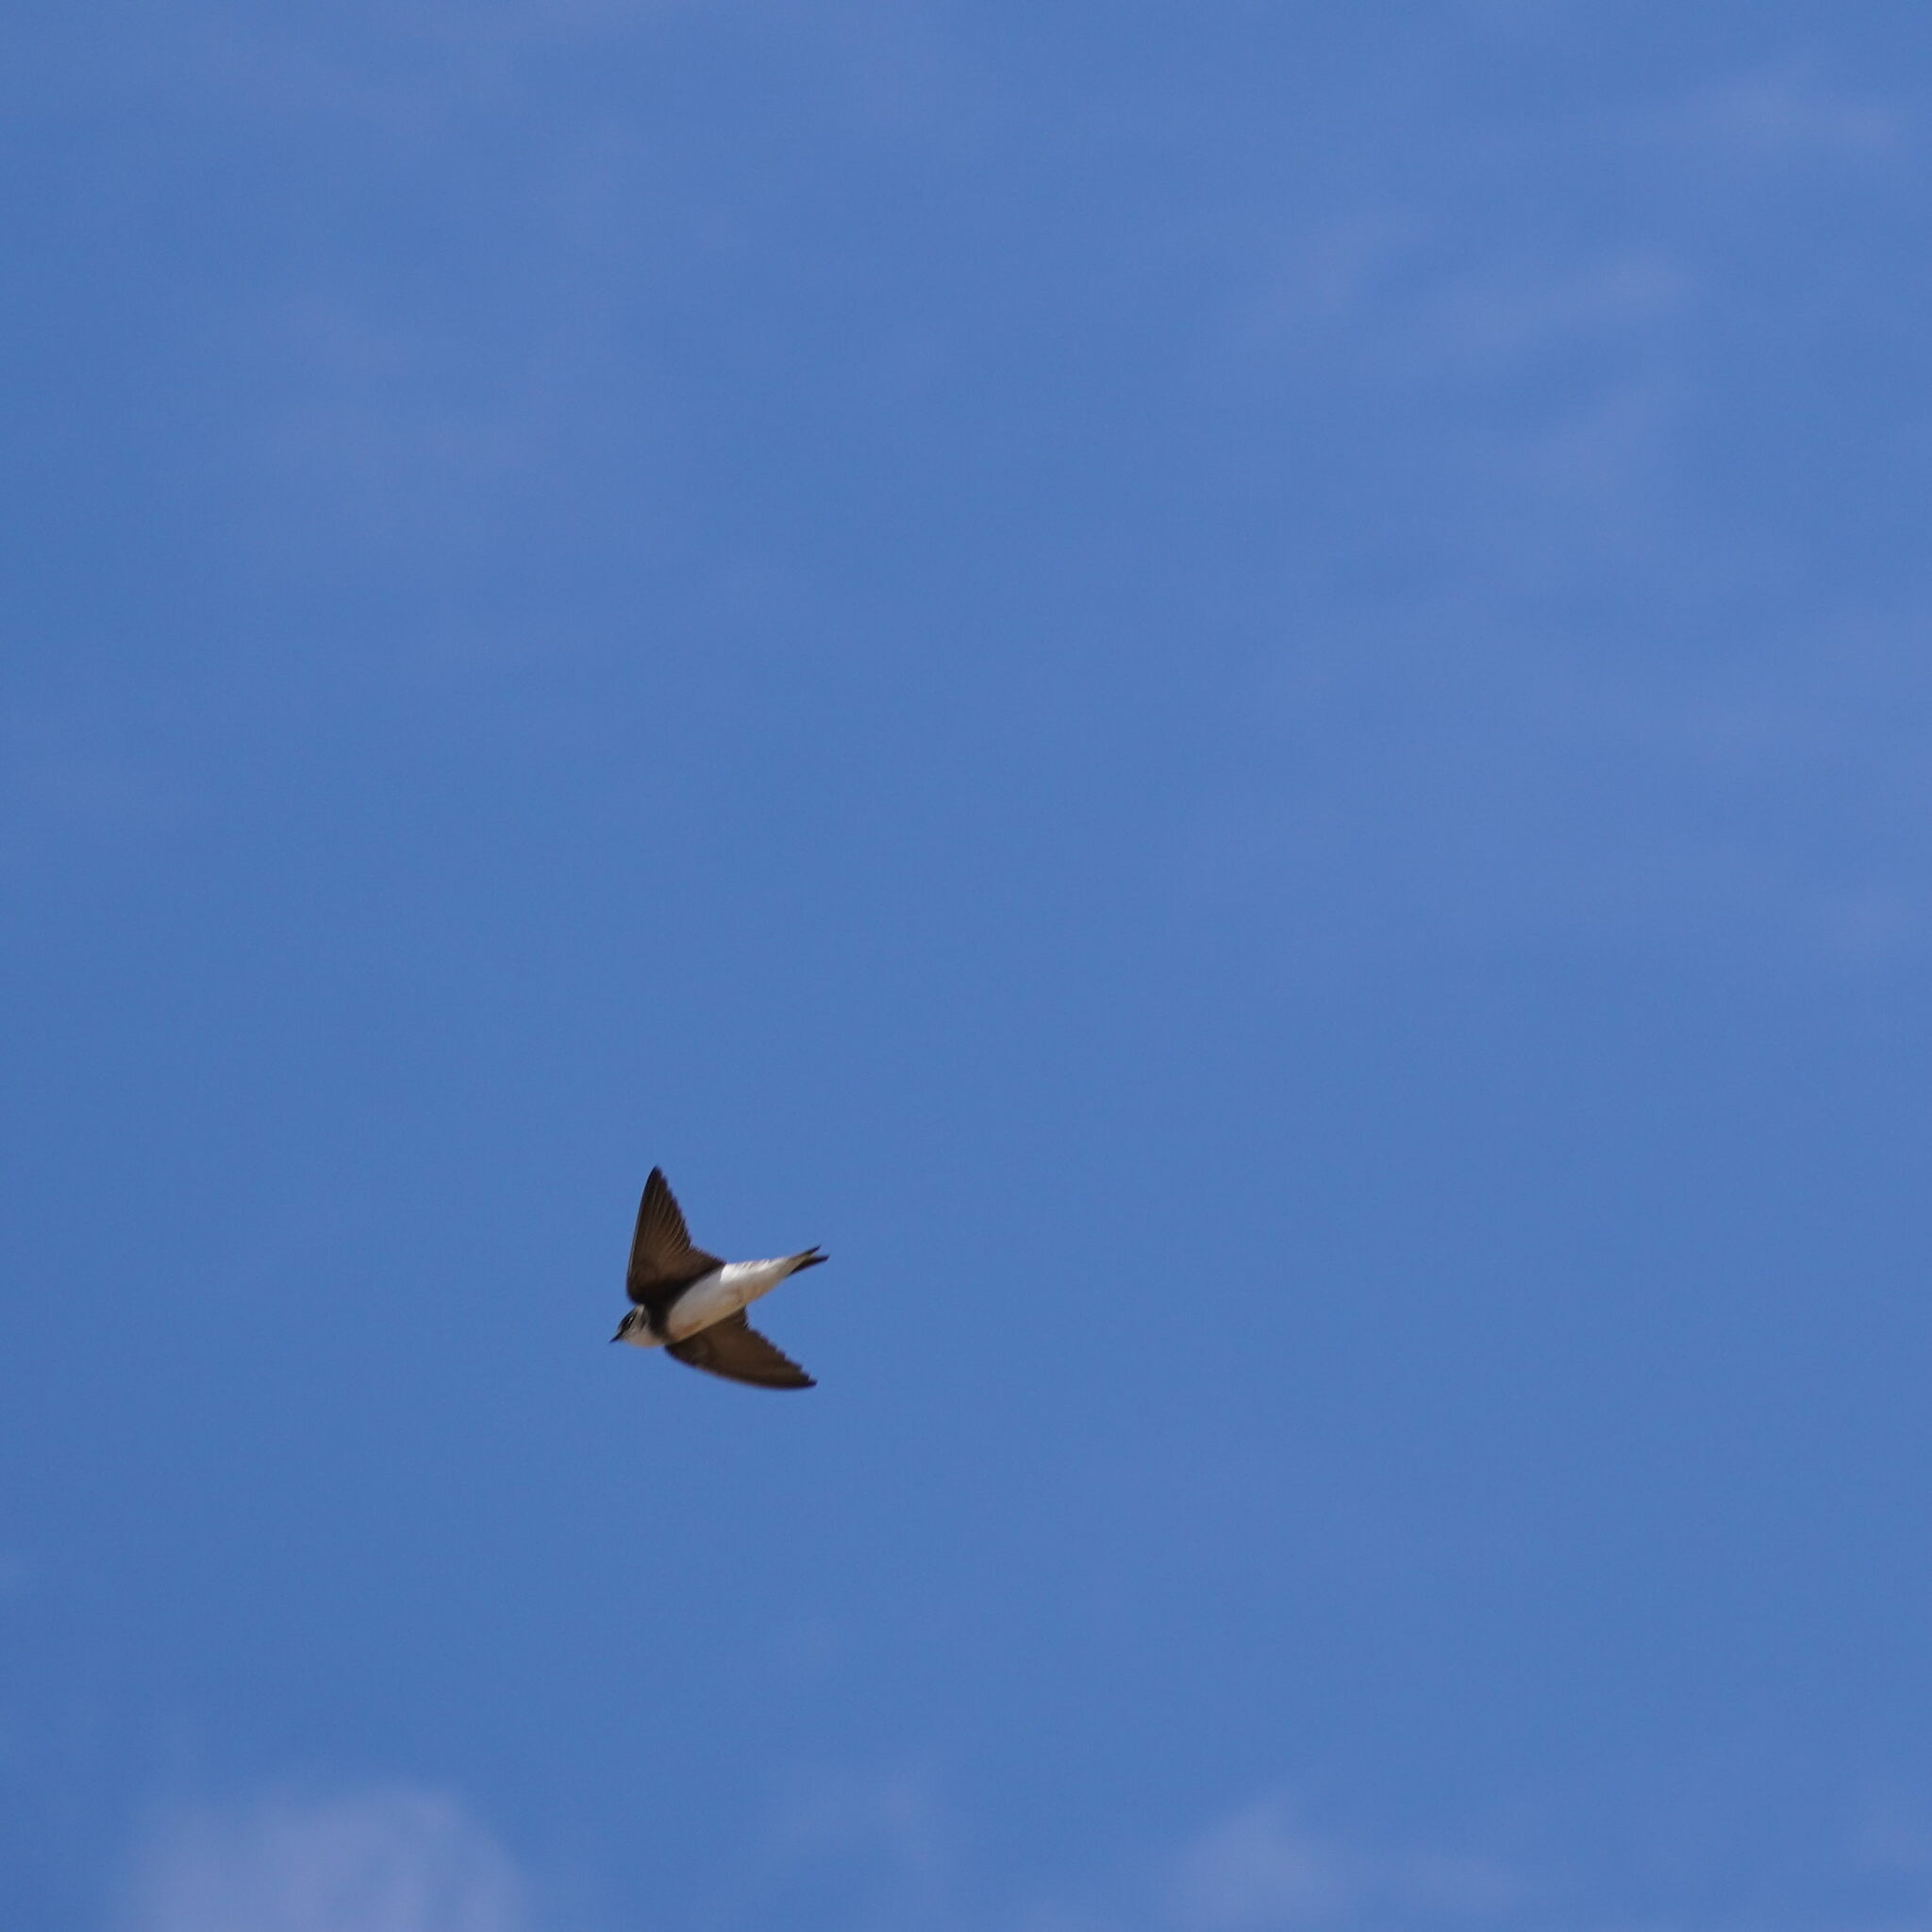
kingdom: Animalia
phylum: Chordata
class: Aves
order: Passeriformes
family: Hirundinidae
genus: Riparia
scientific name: Riparia riparia
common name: Sand martin
